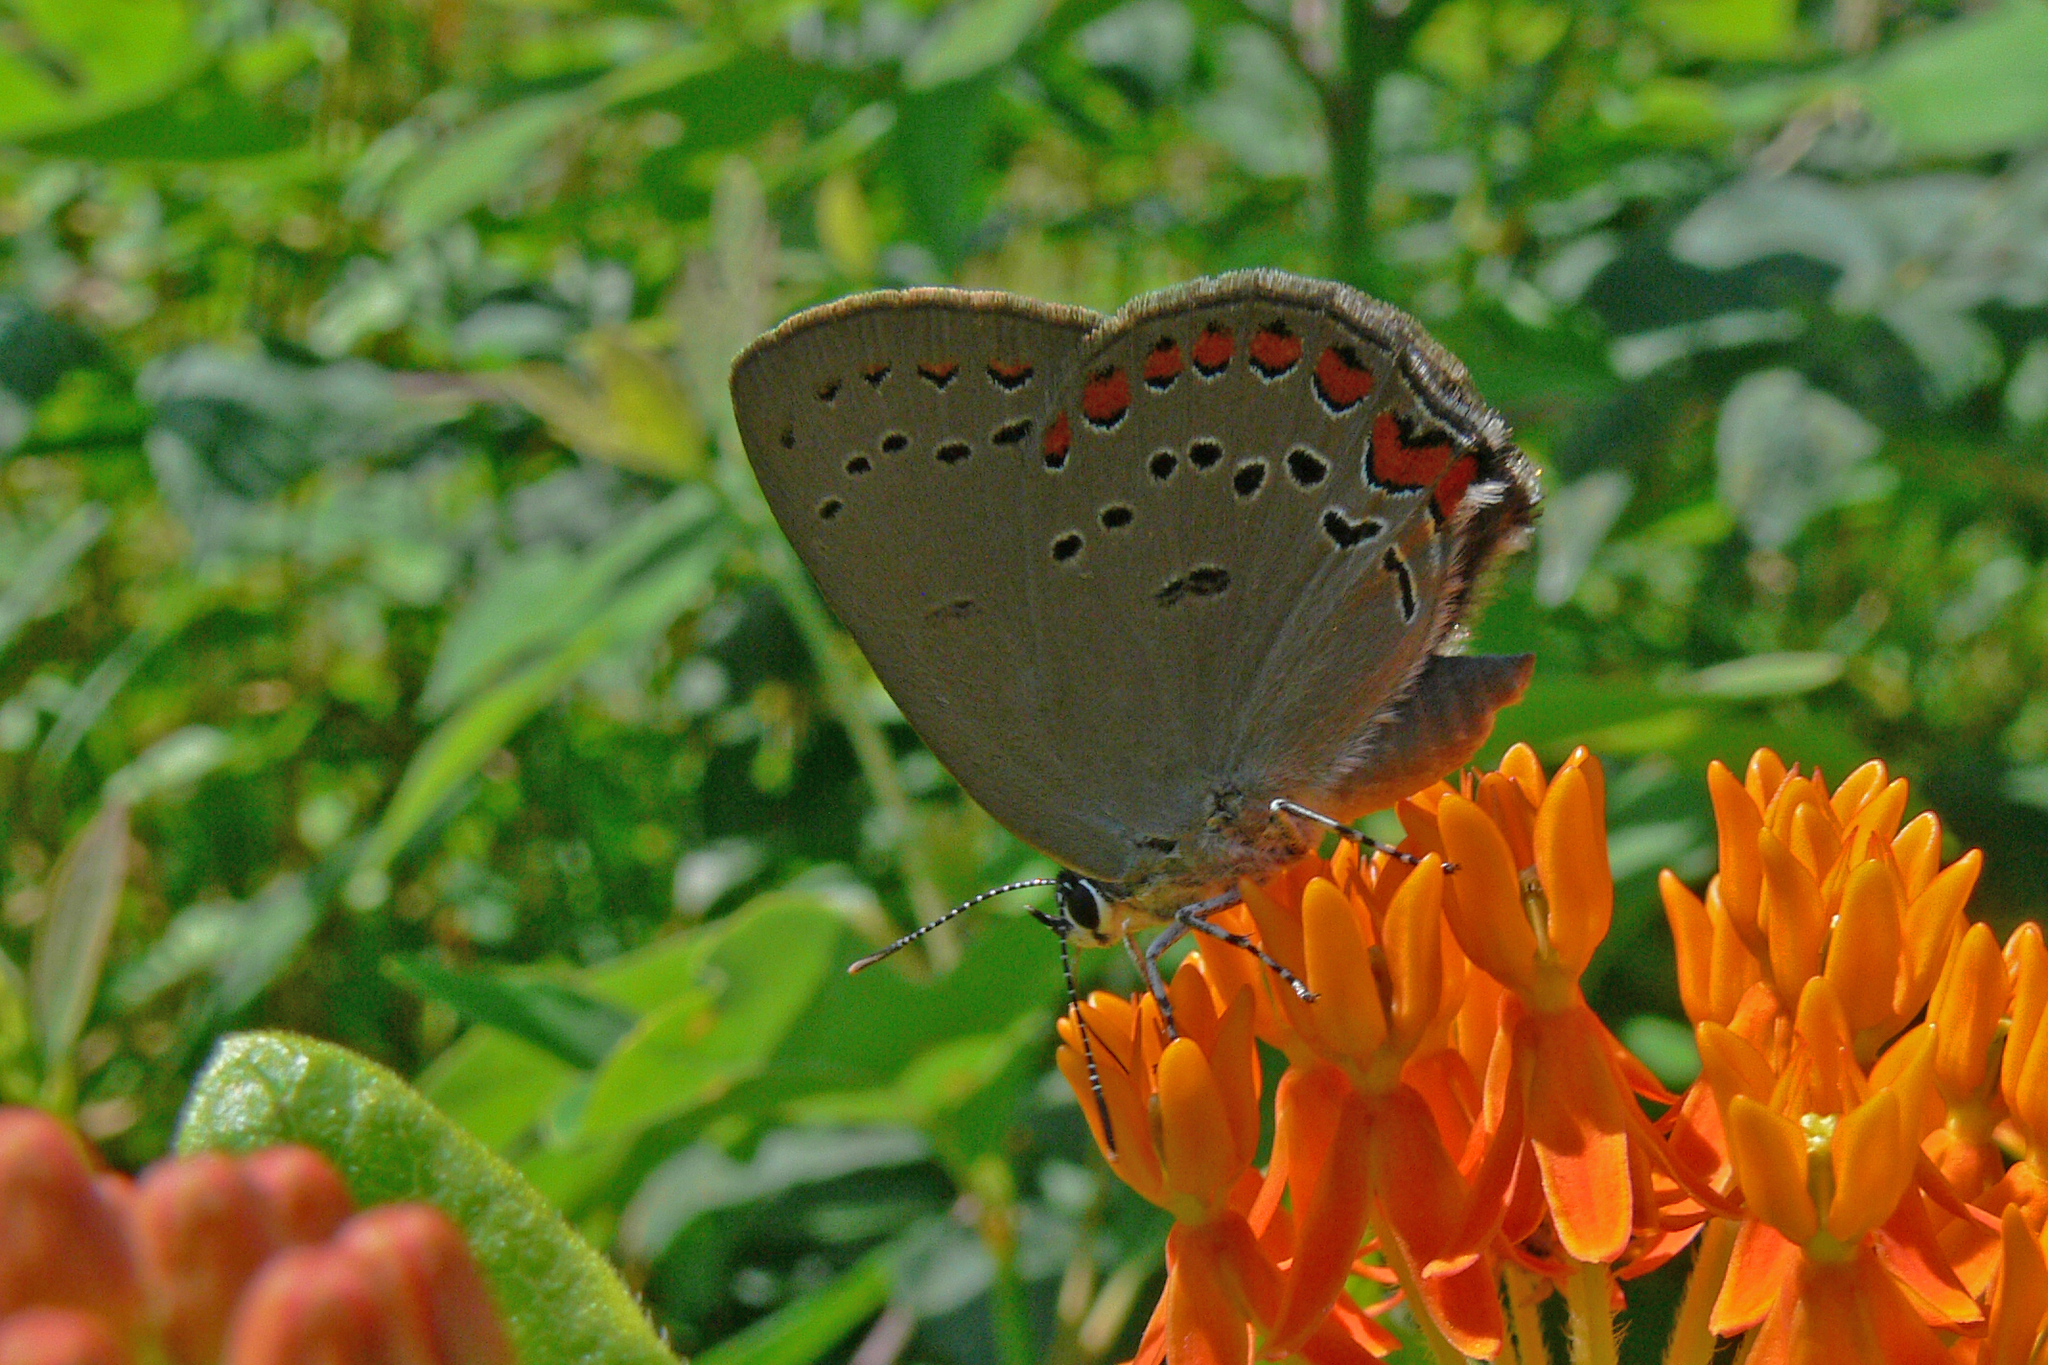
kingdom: Animalia
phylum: Arthropoda
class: Insecta
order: Lepidoptera
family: Lycaenidae
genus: Harkenclenus
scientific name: Harkenclenus titus
